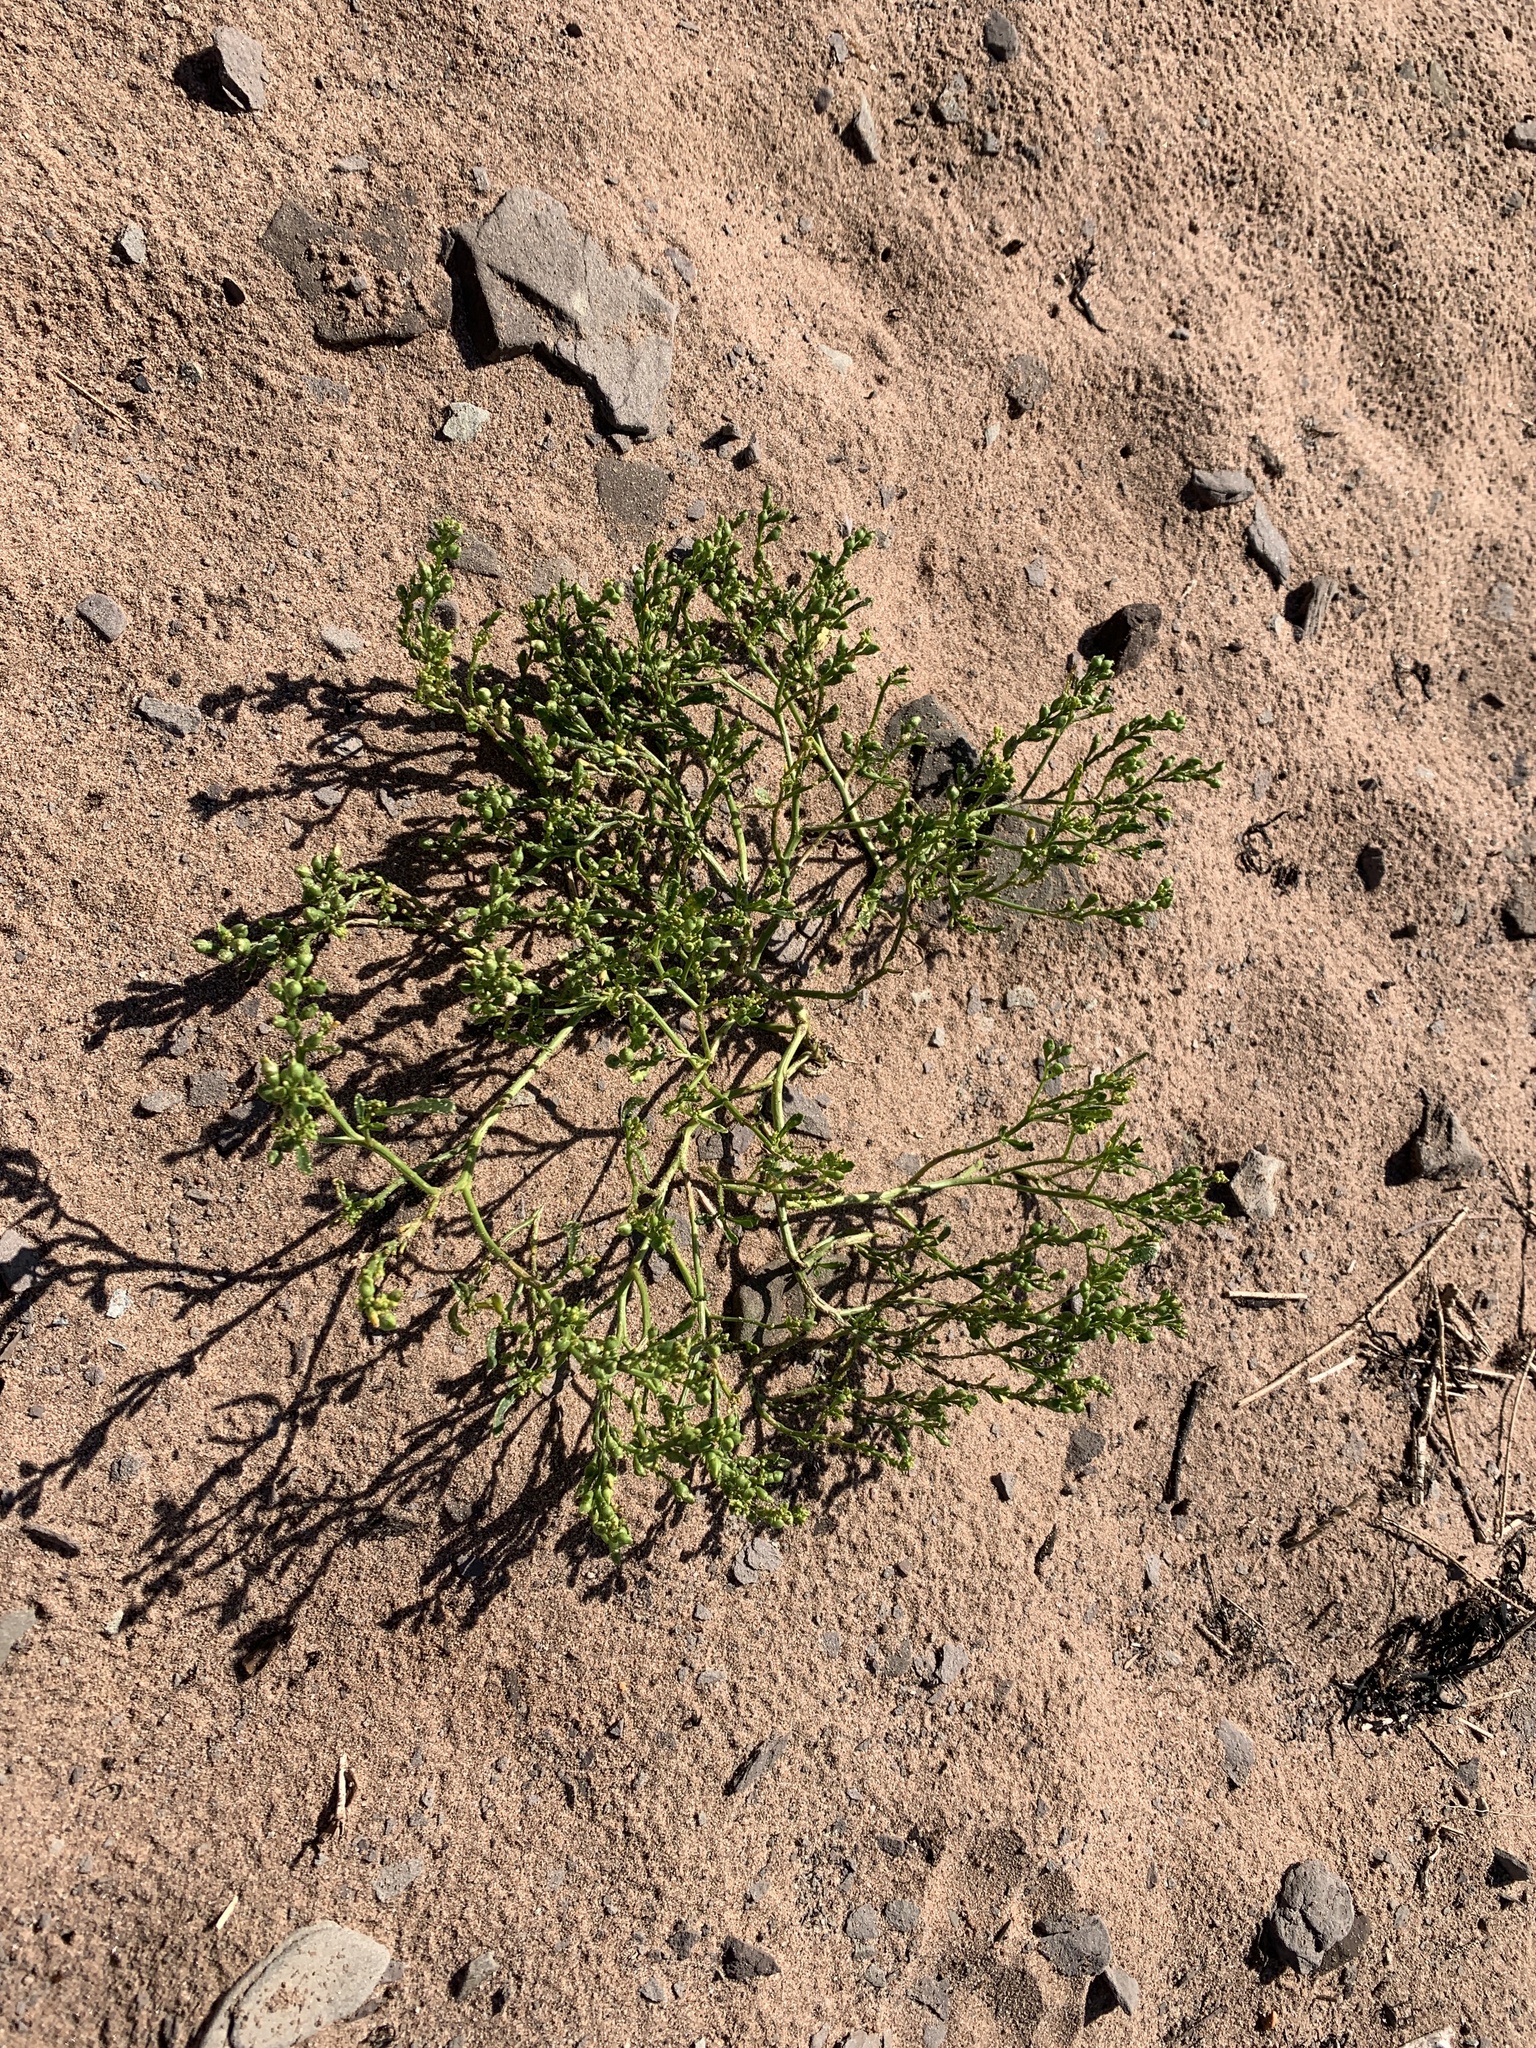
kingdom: Plantae
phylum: Tracheophyta
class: Magnoliopsida
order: Brassicales
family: Brassicaceae
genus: Cakile
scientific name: Cakile edentula
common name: American sea rocket
